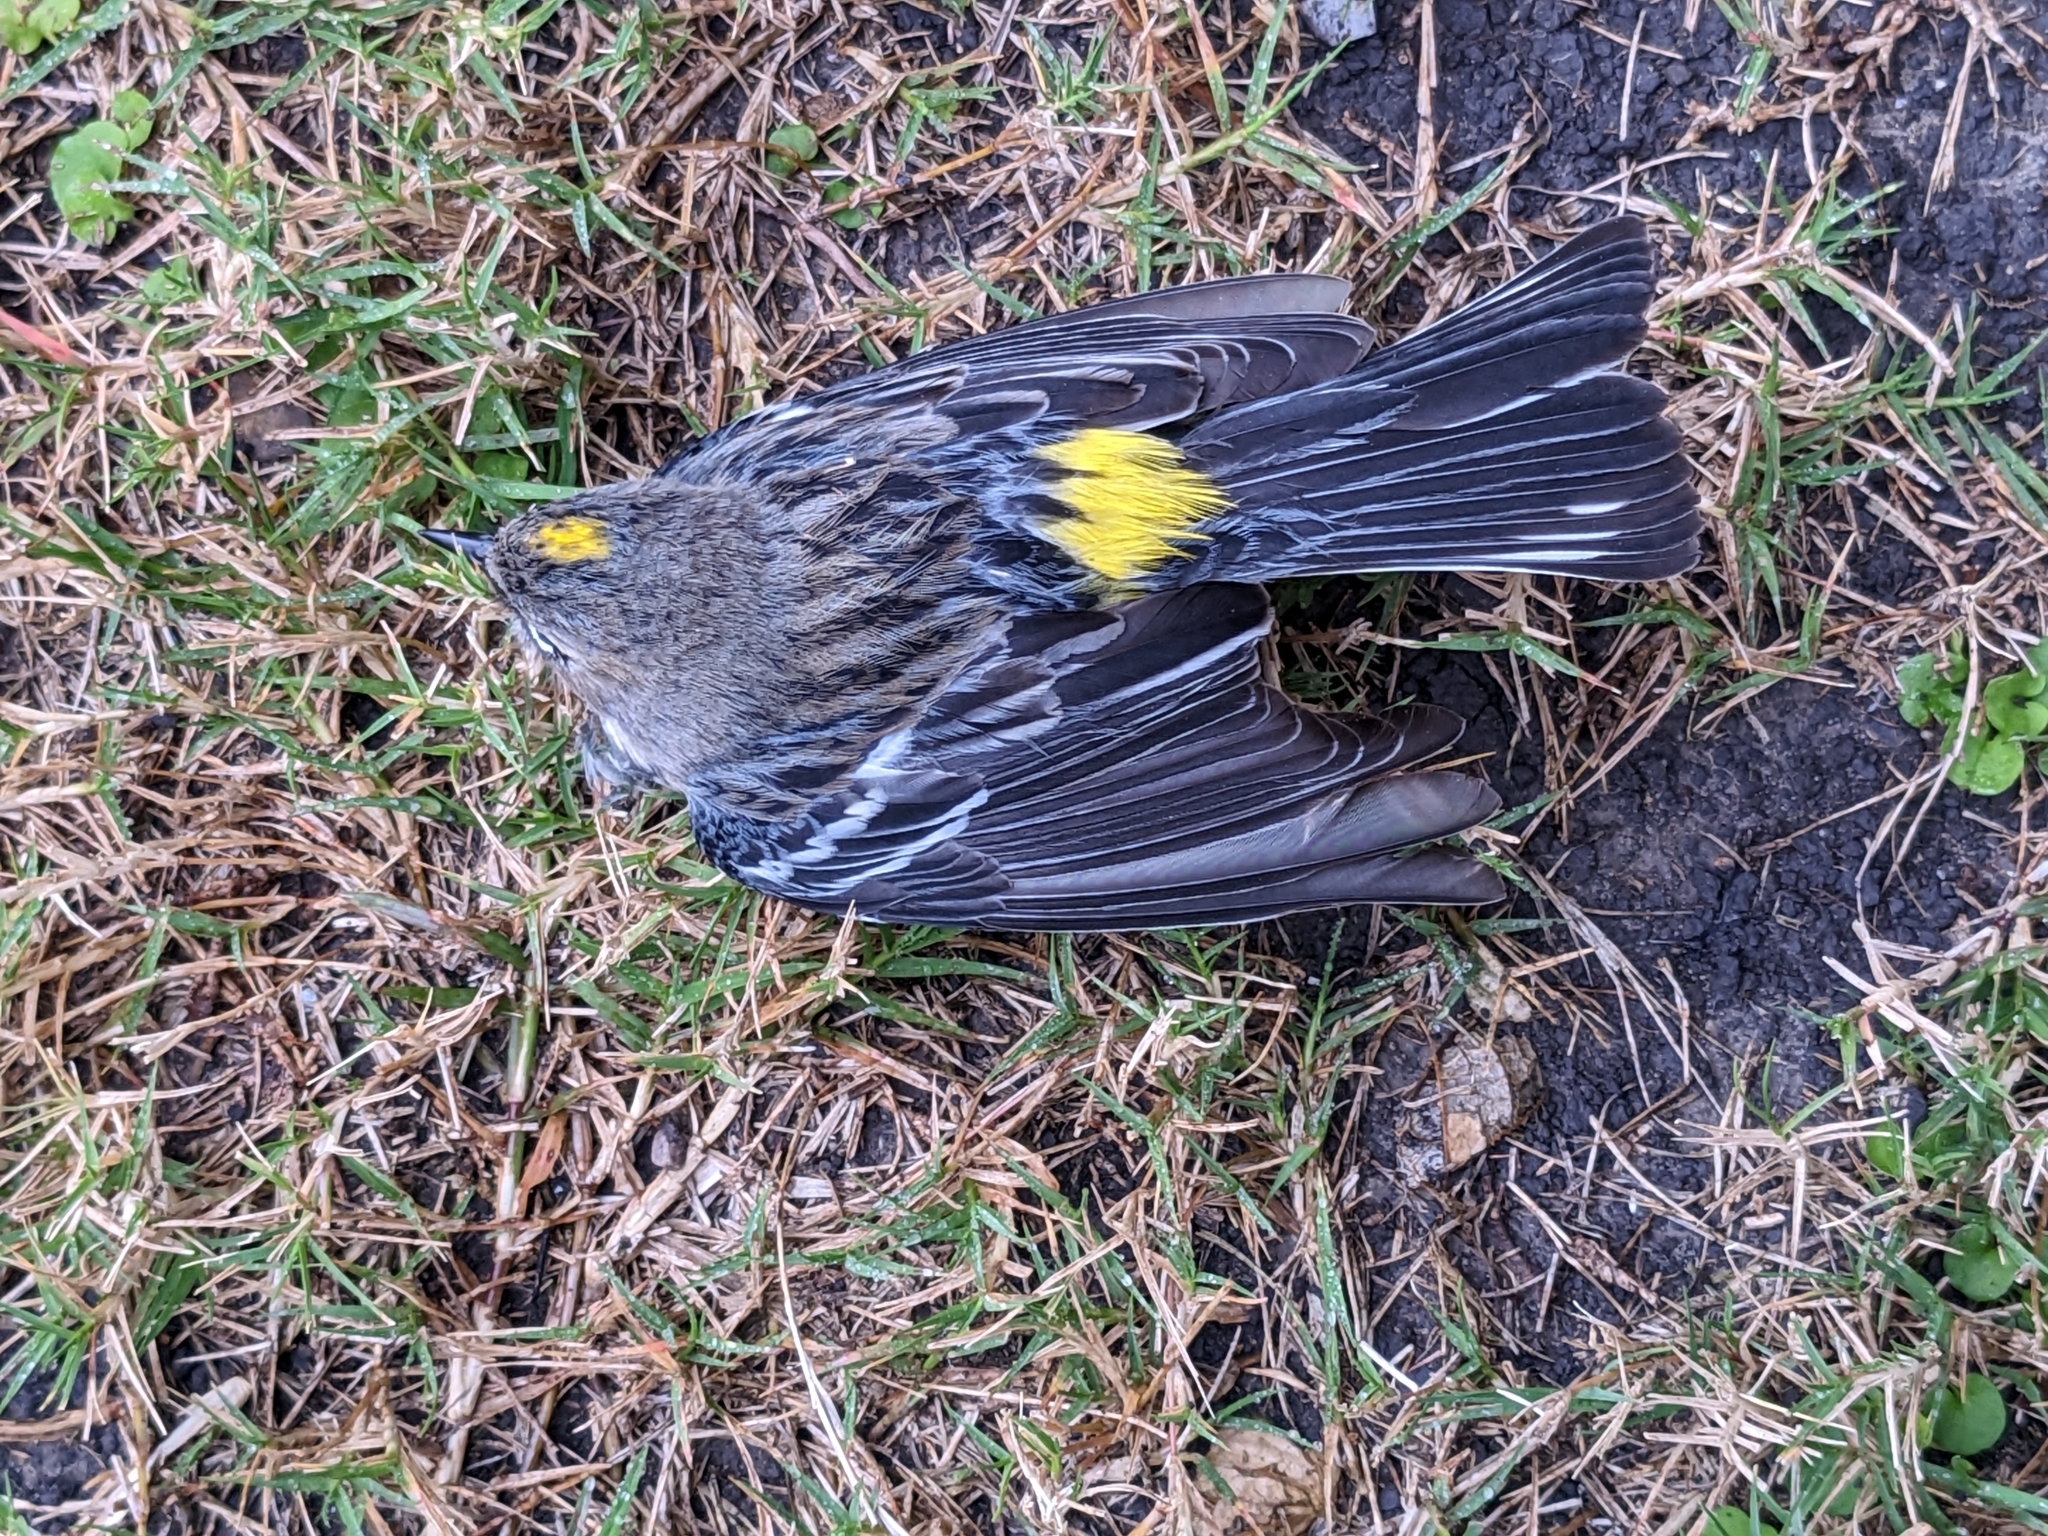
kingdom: Animalia
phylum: Chordata
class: Aves
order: Passeriformes
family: Parulidae
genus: Setophaga
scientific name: Setophaga coronata
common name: Myrtle warbler
